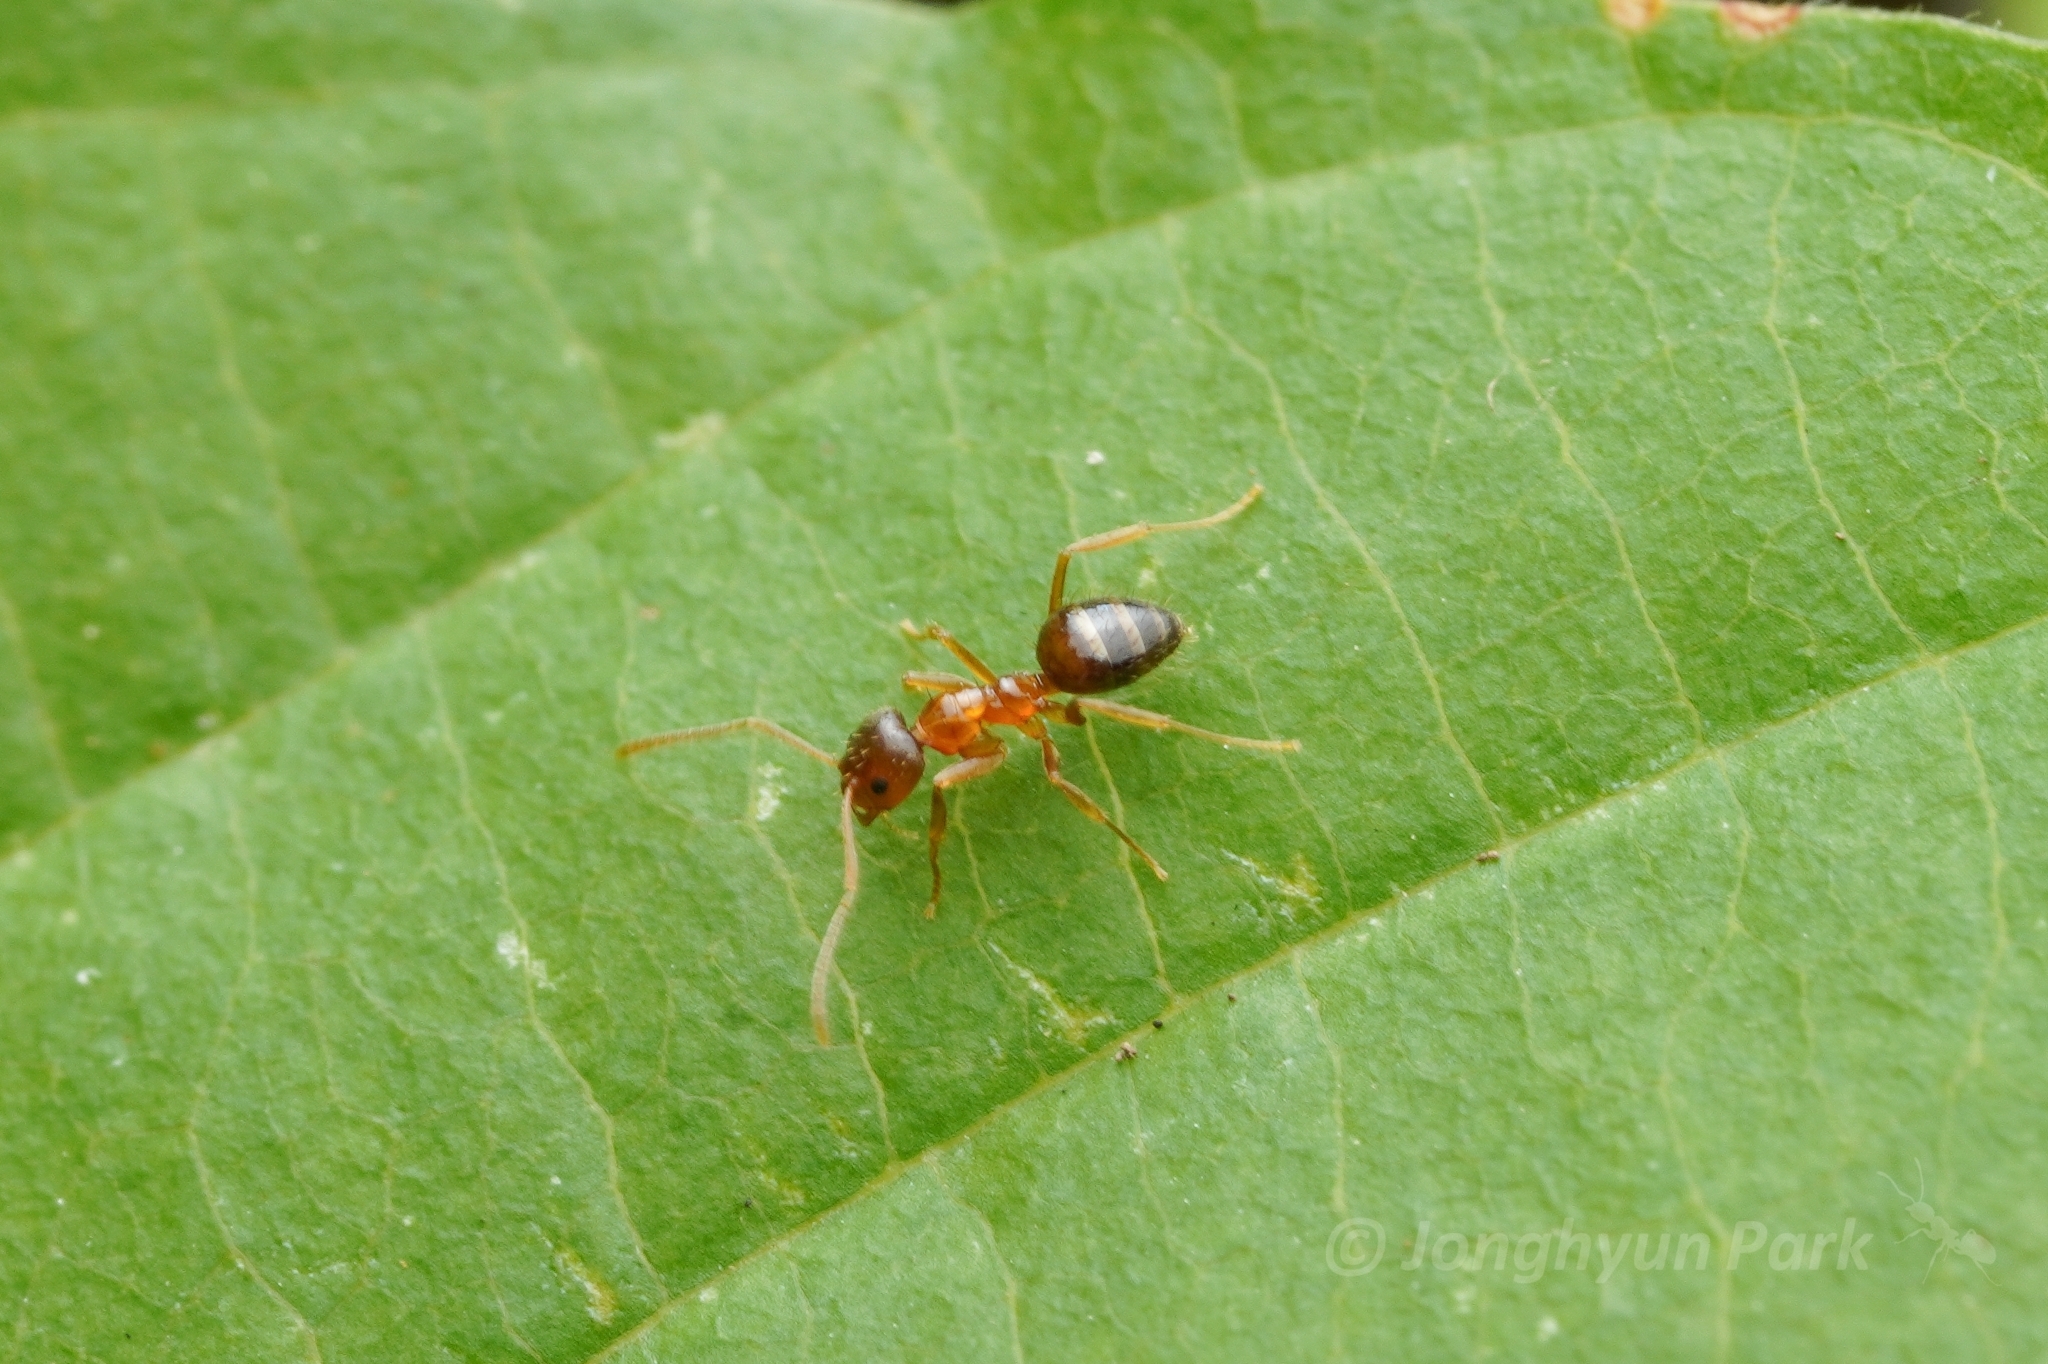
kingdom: Animalia
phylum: Arthropoda
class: Insecta
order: Hymenoptera
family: Formicidae
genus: Paratrechina
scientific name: Paratrechina flavipes
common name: Eastern asian formicine ant
